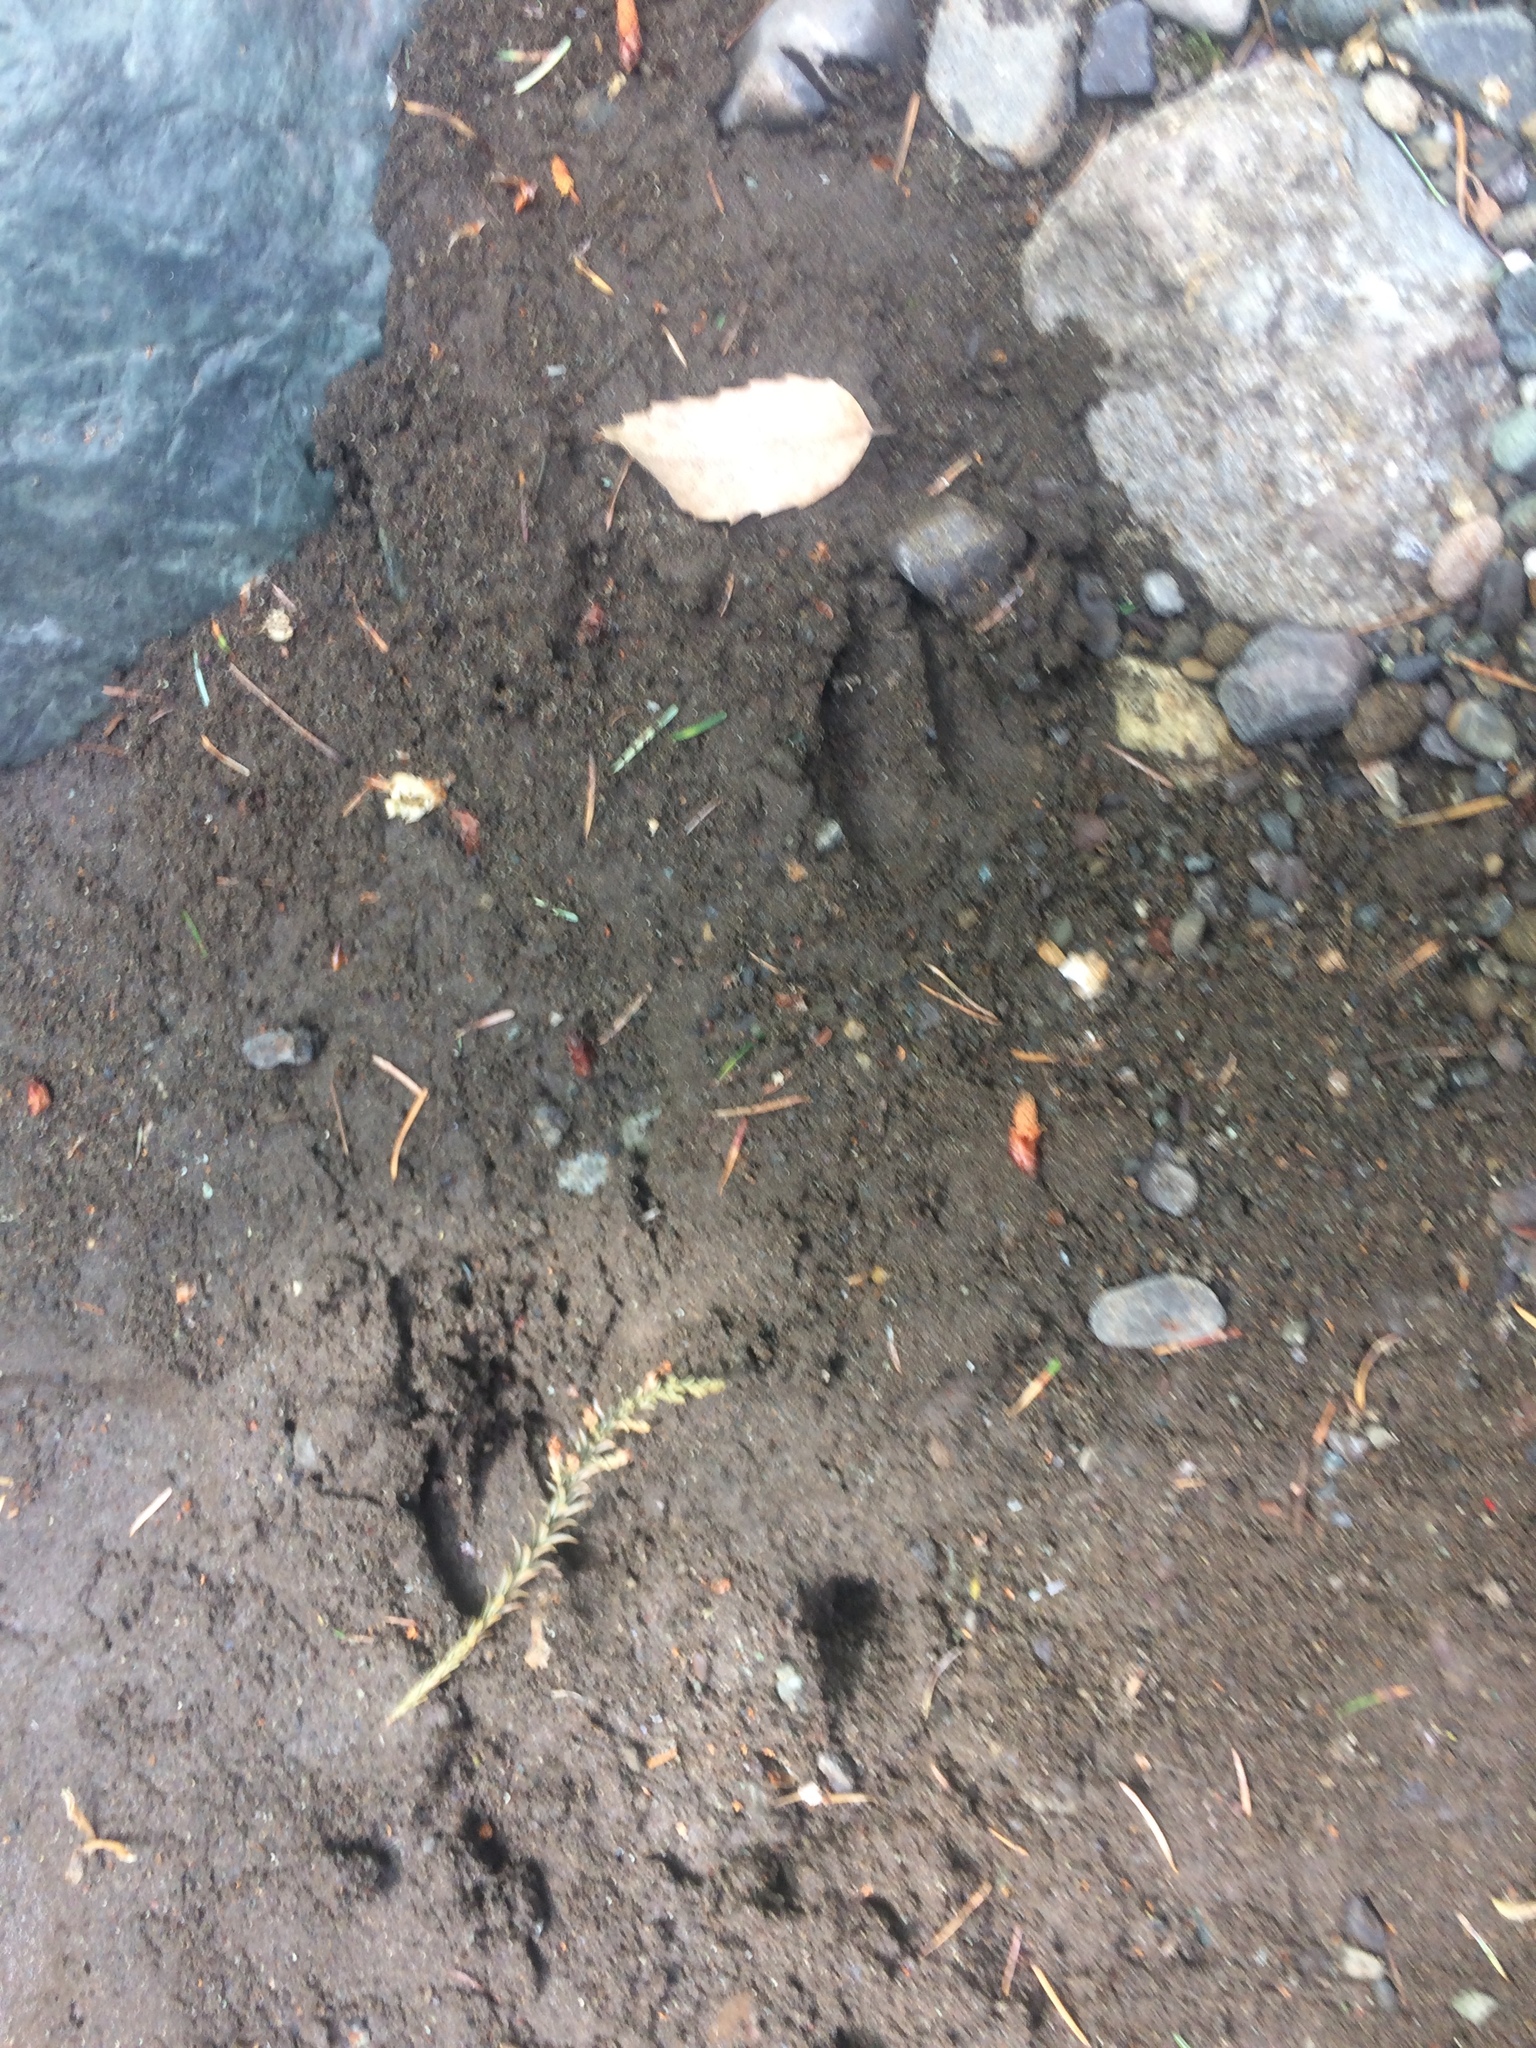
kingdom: Animalia
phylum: Chordata
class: Mammalia
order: Artiodactyla
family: Cervidae
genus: Odocoileus
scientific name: Odocoileus hemionus
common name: Mule deer
